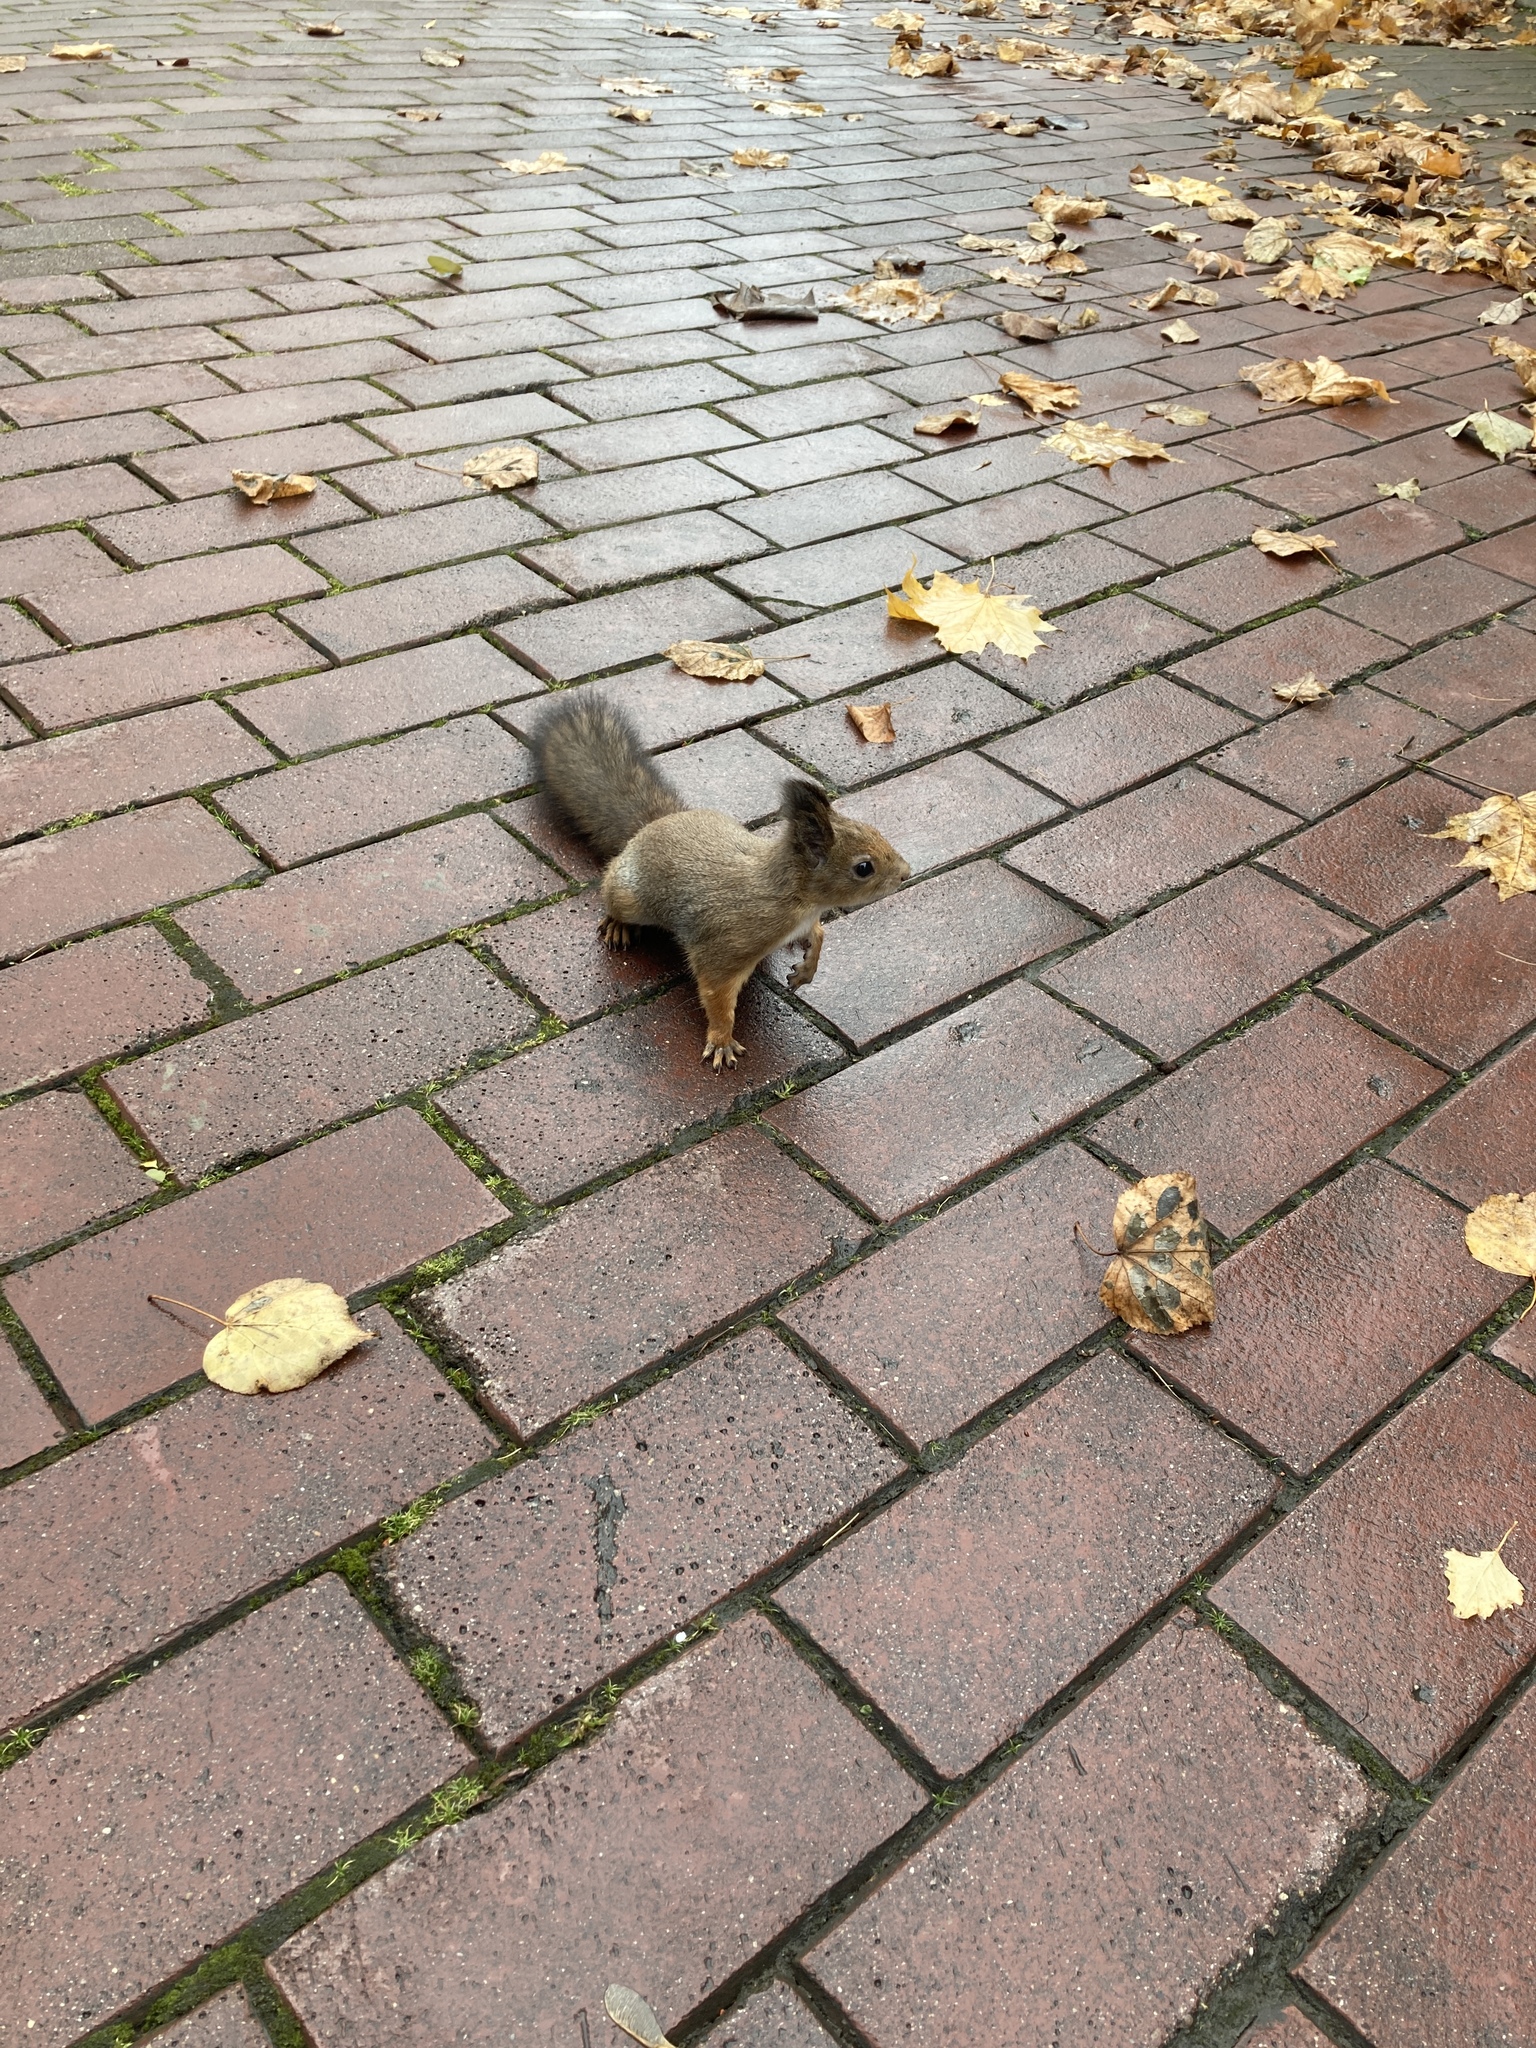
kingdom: Animalia
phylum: Chordata
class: Mammalia
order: Rodentia
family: Sciuridae
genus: Sciurus
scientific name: Sciurus vulgaris
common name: Eurasian red squirrel
